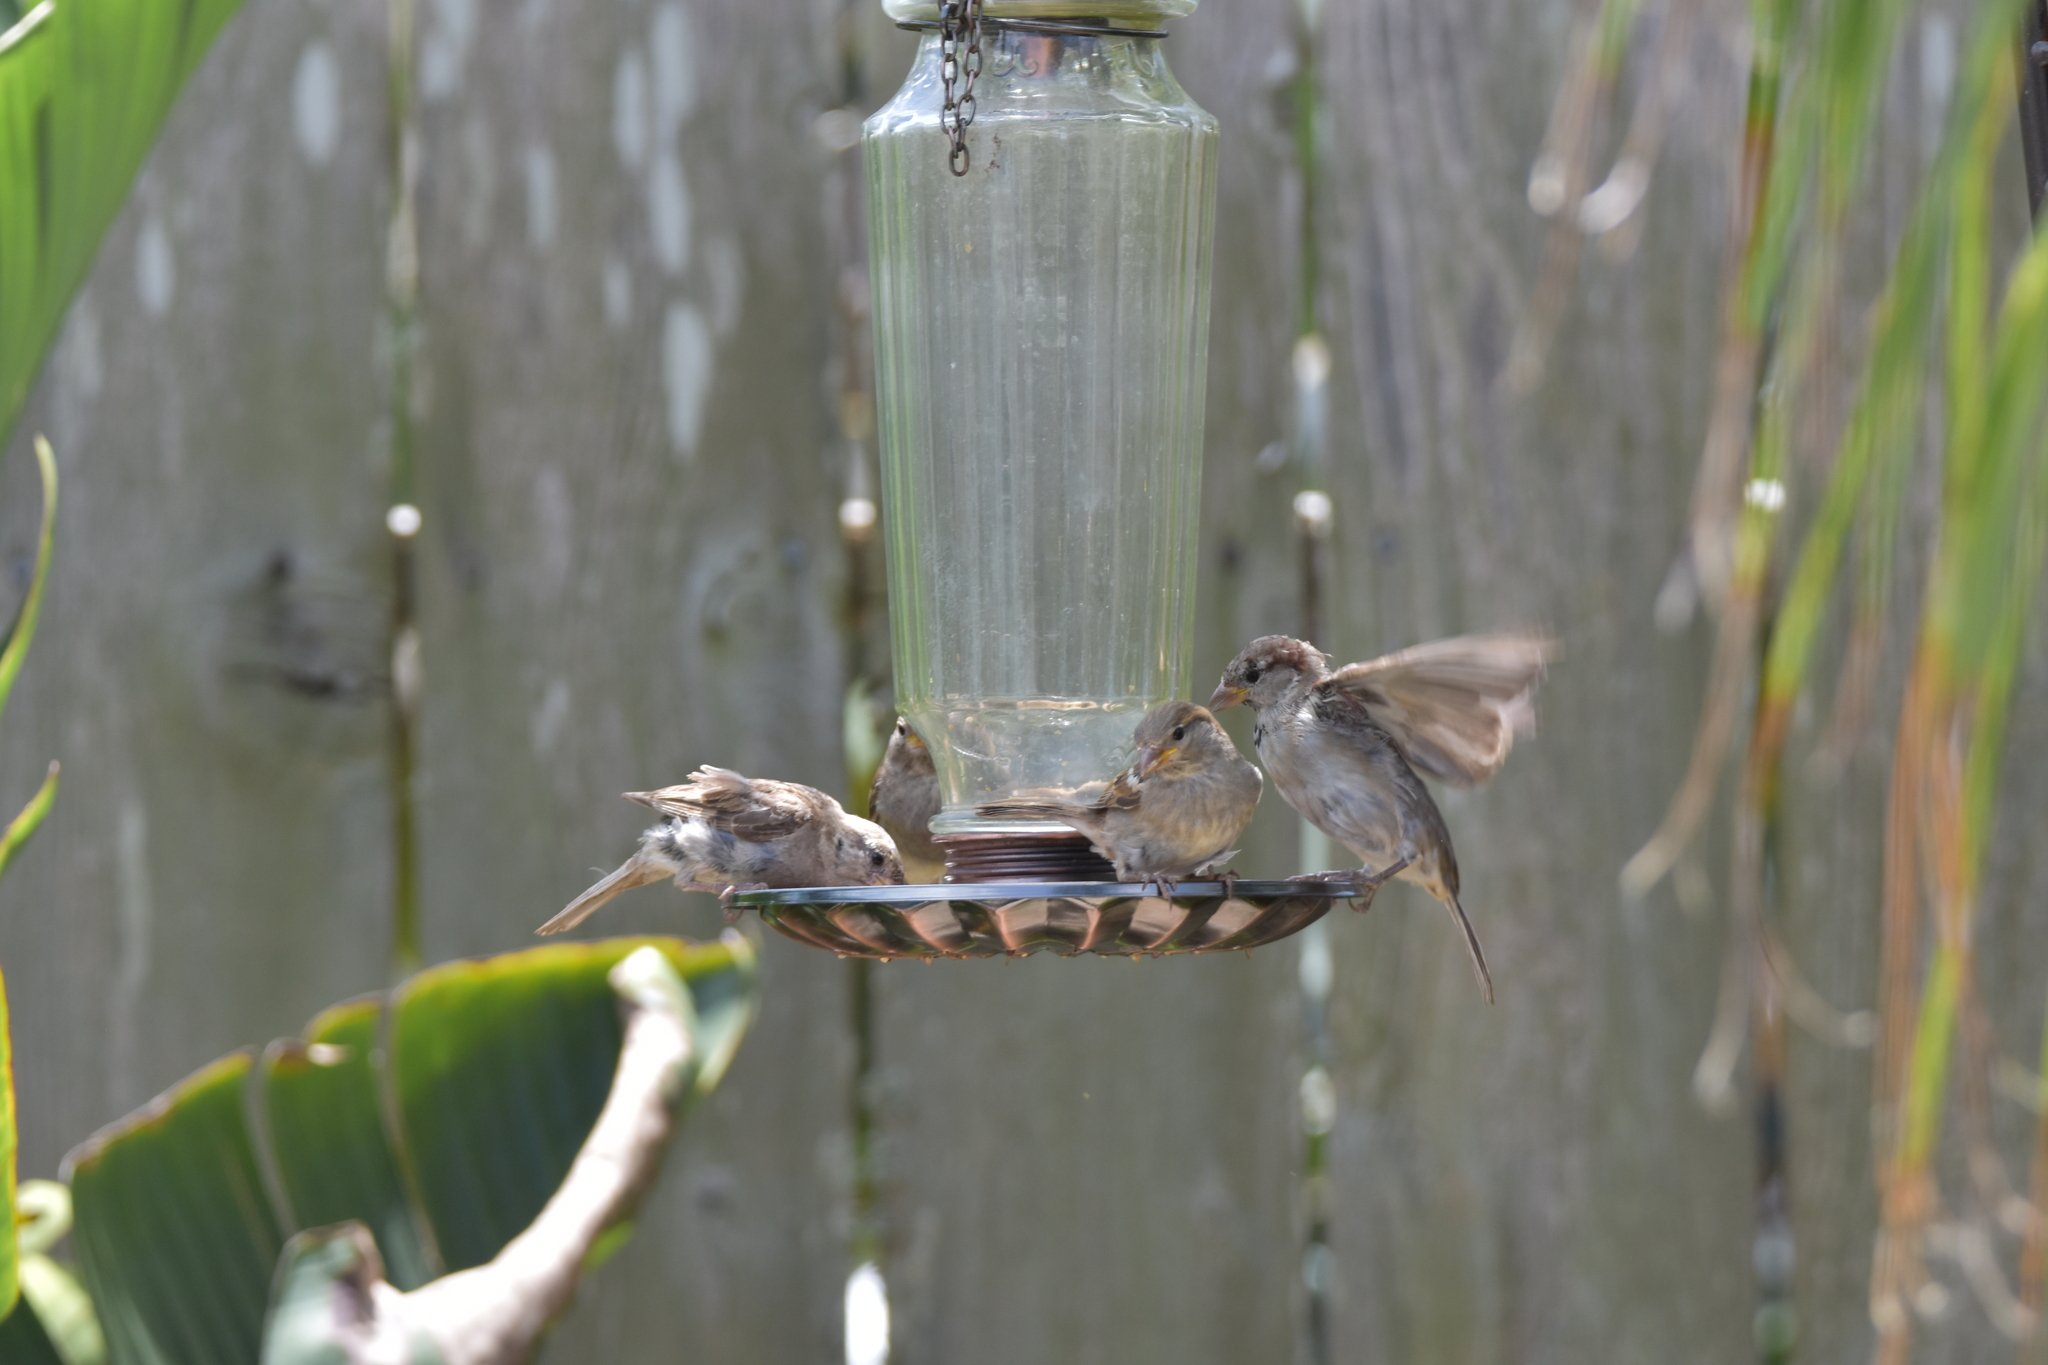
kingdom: Animalia
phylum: Chordata
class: Aves
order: Passeriformes
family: Passeridae
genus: Passer
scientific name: Passer domesticus
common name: House sparrow
